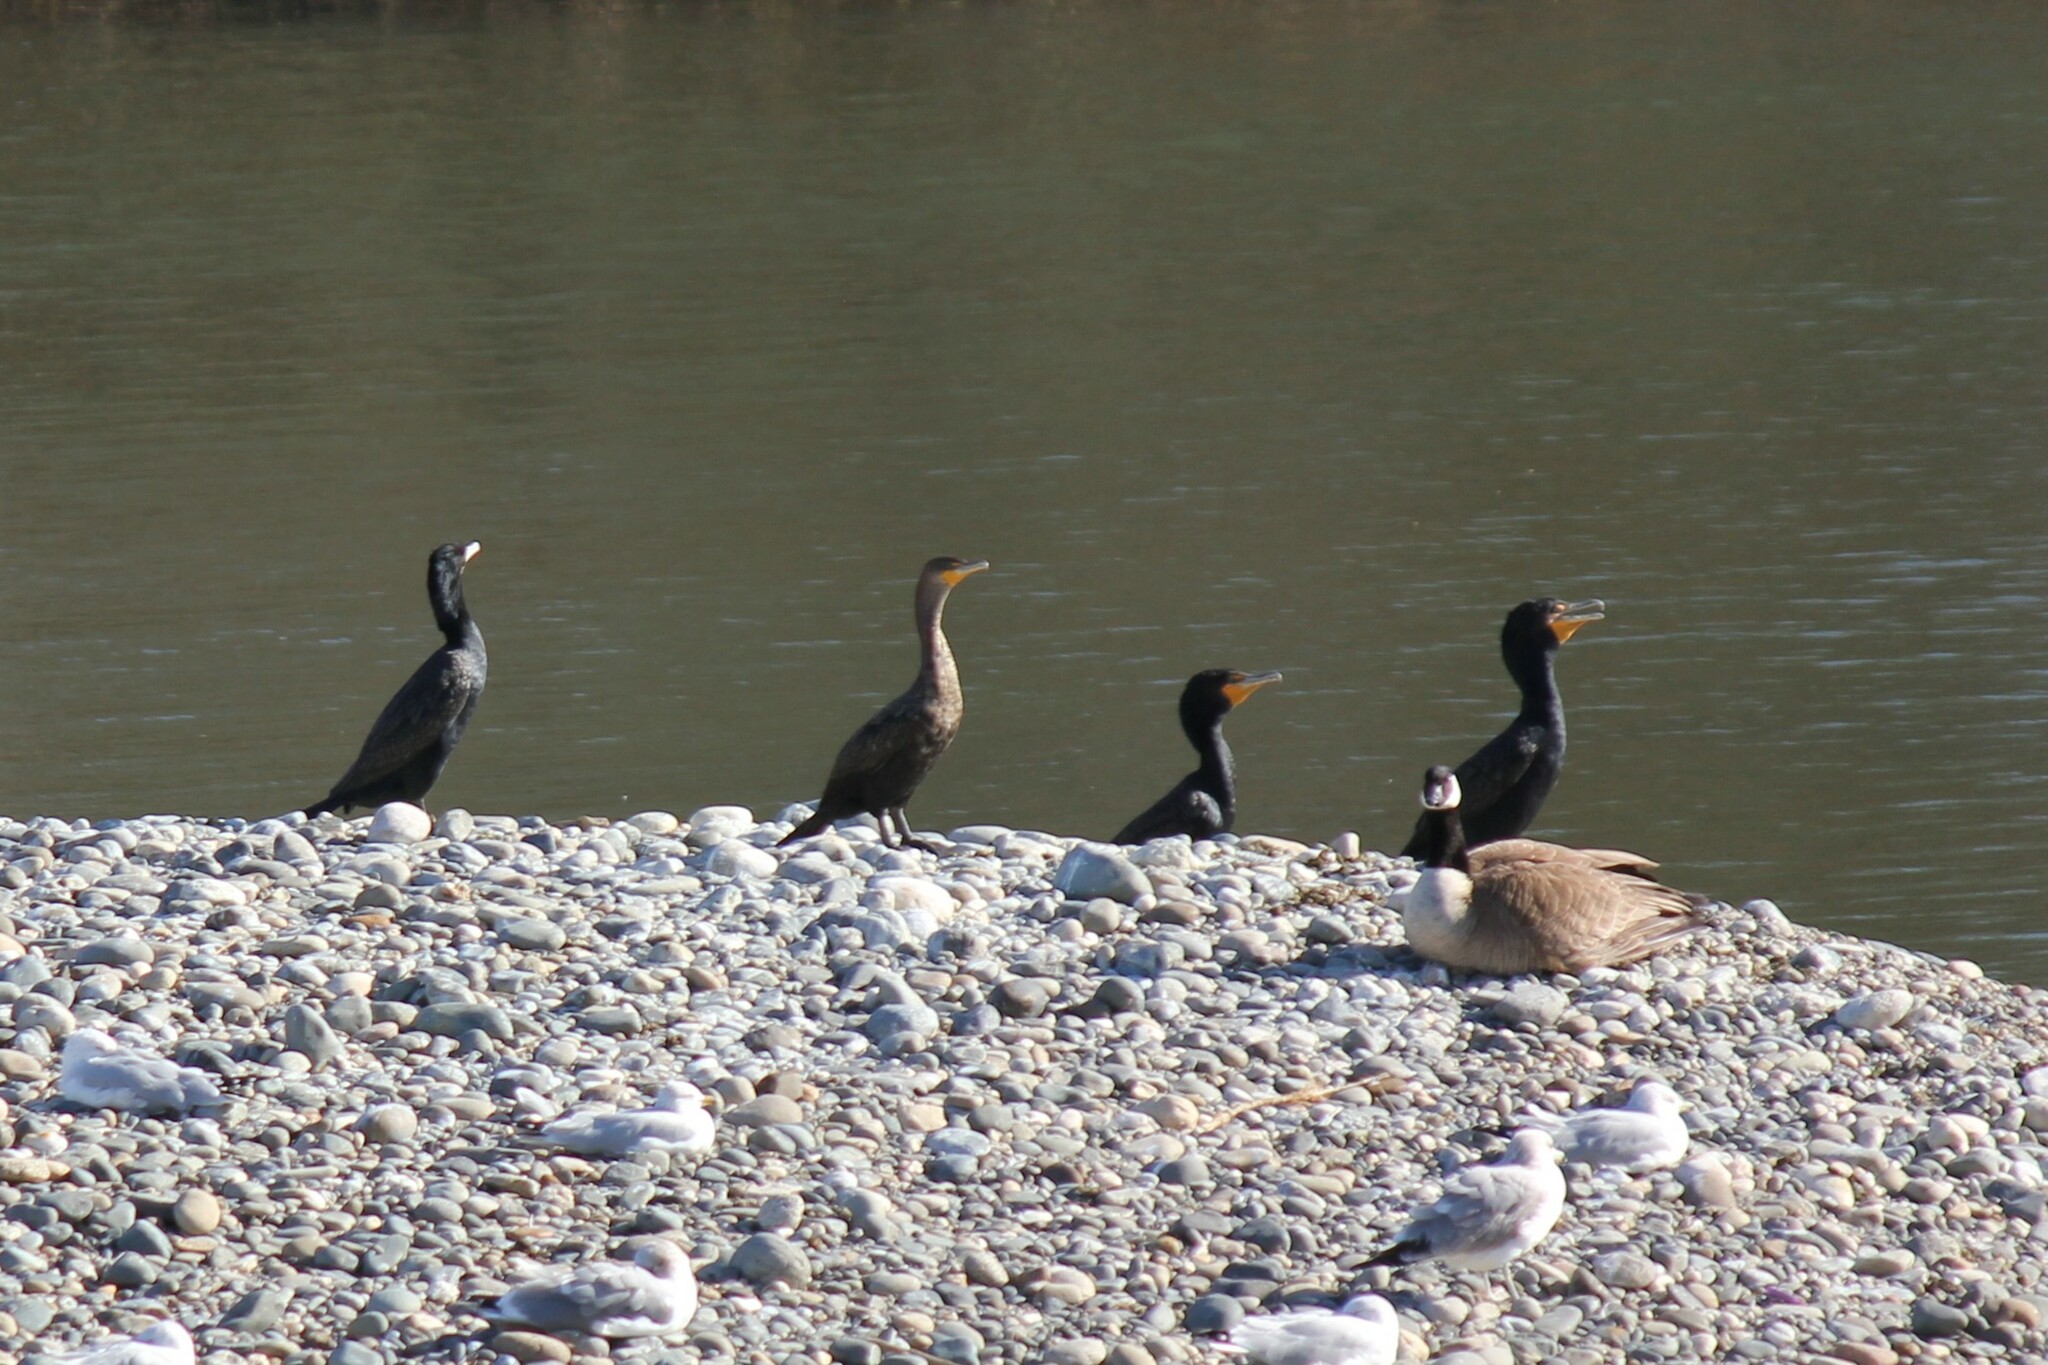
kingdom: Animalia
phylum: Chordata
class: Aves
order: Suliformes
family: Phalacrocoracidae
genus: Phalacrocorax
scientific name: Phalacrocorax auritus
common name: Double-crested cormorant
